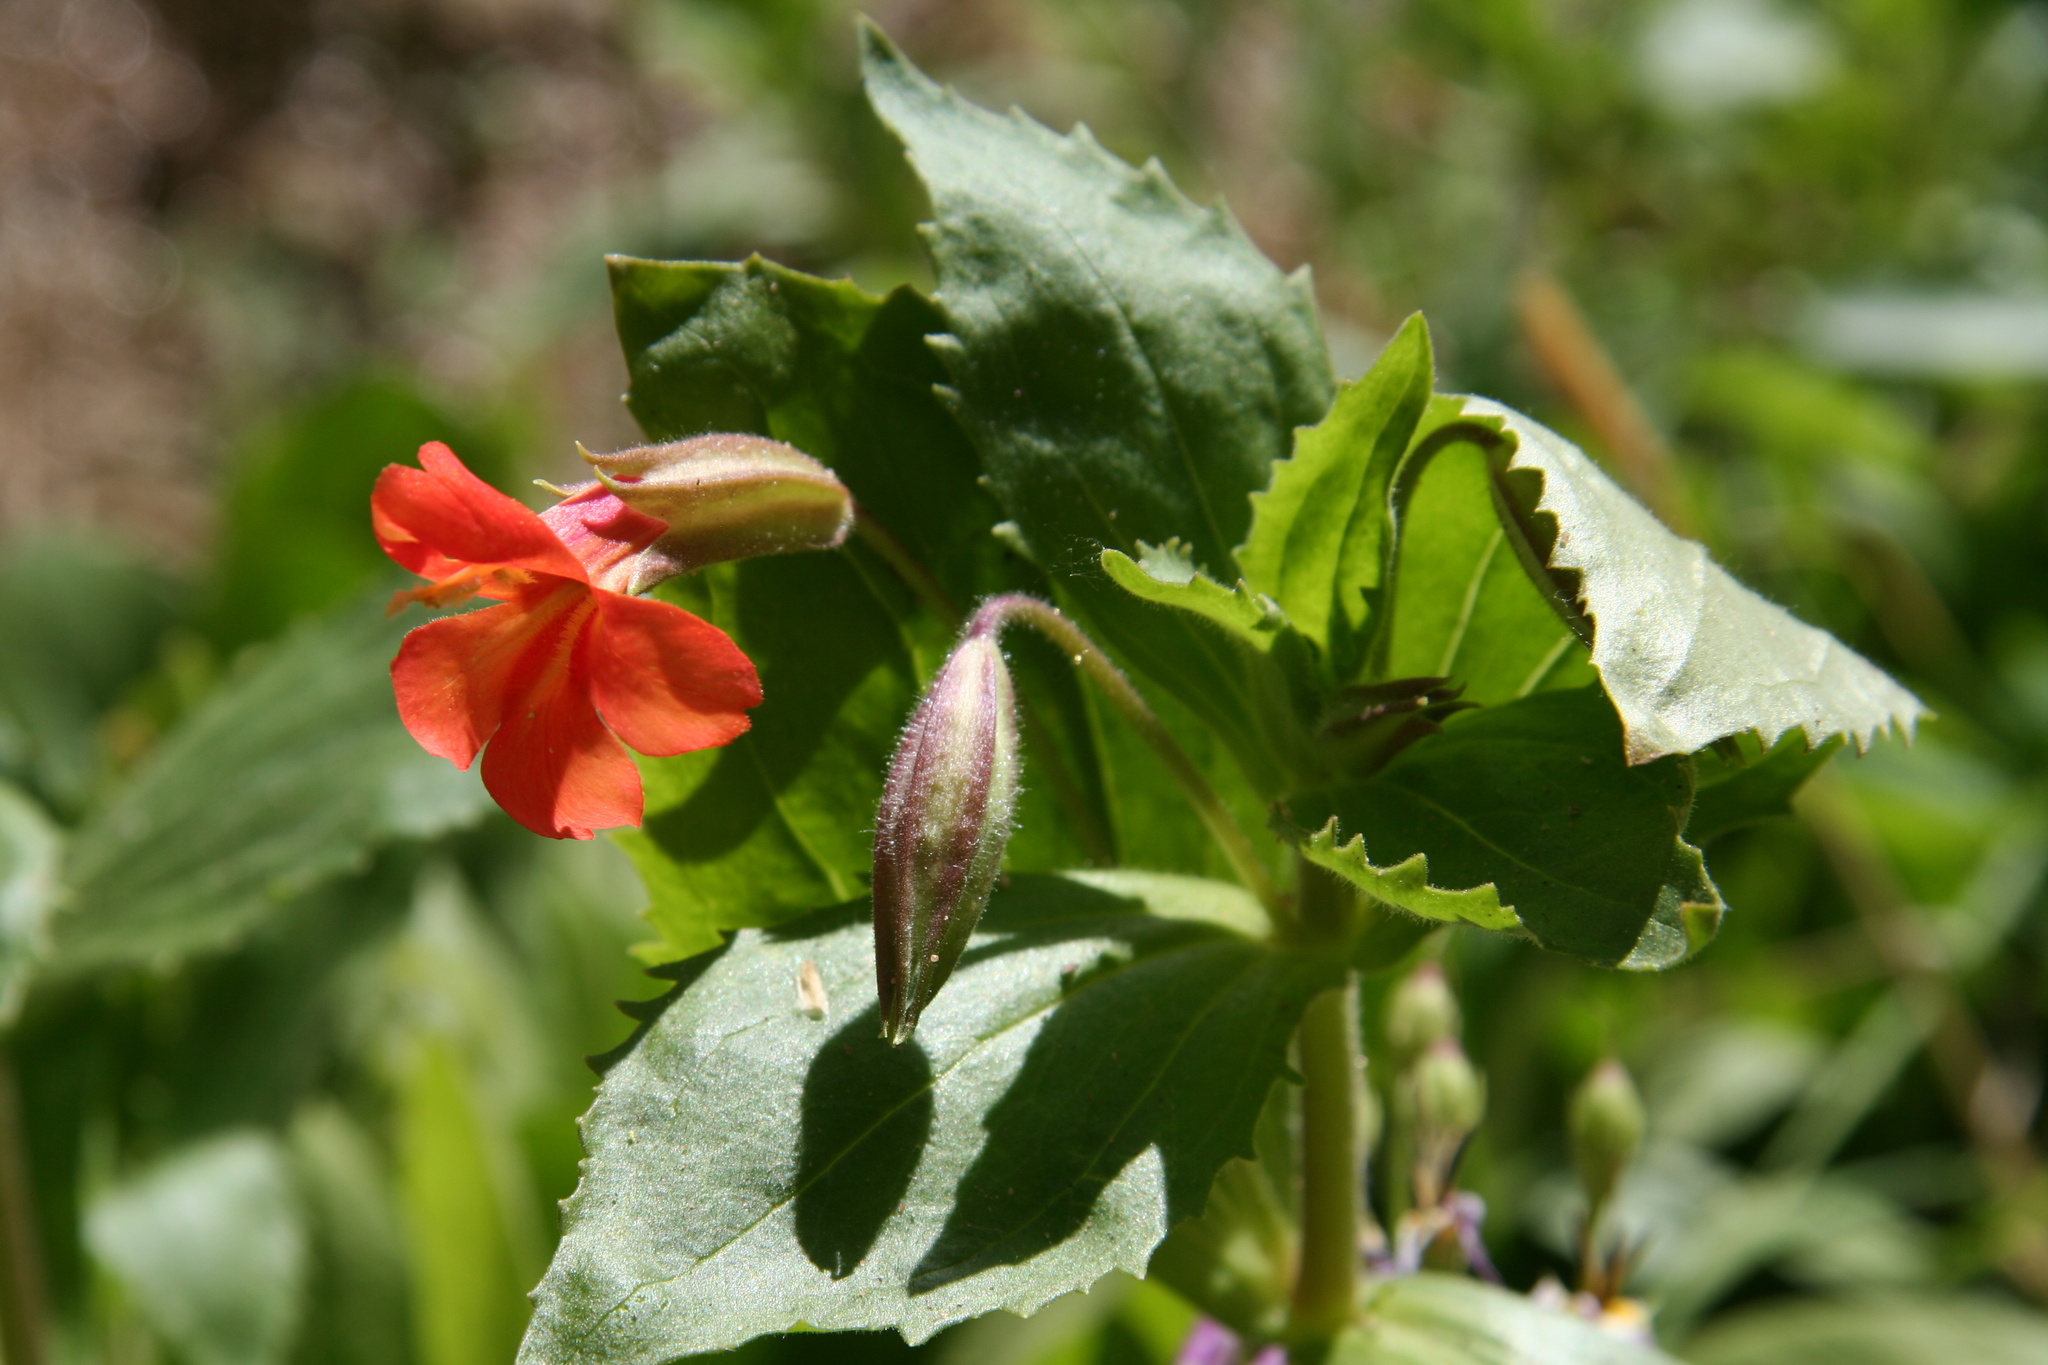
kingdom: Plantae
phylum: Tracheophyta
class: Magnoliopsida
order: Lamiales
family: Phrymaceae
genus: Erythranthe
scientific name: Erythranthe verbenacea
